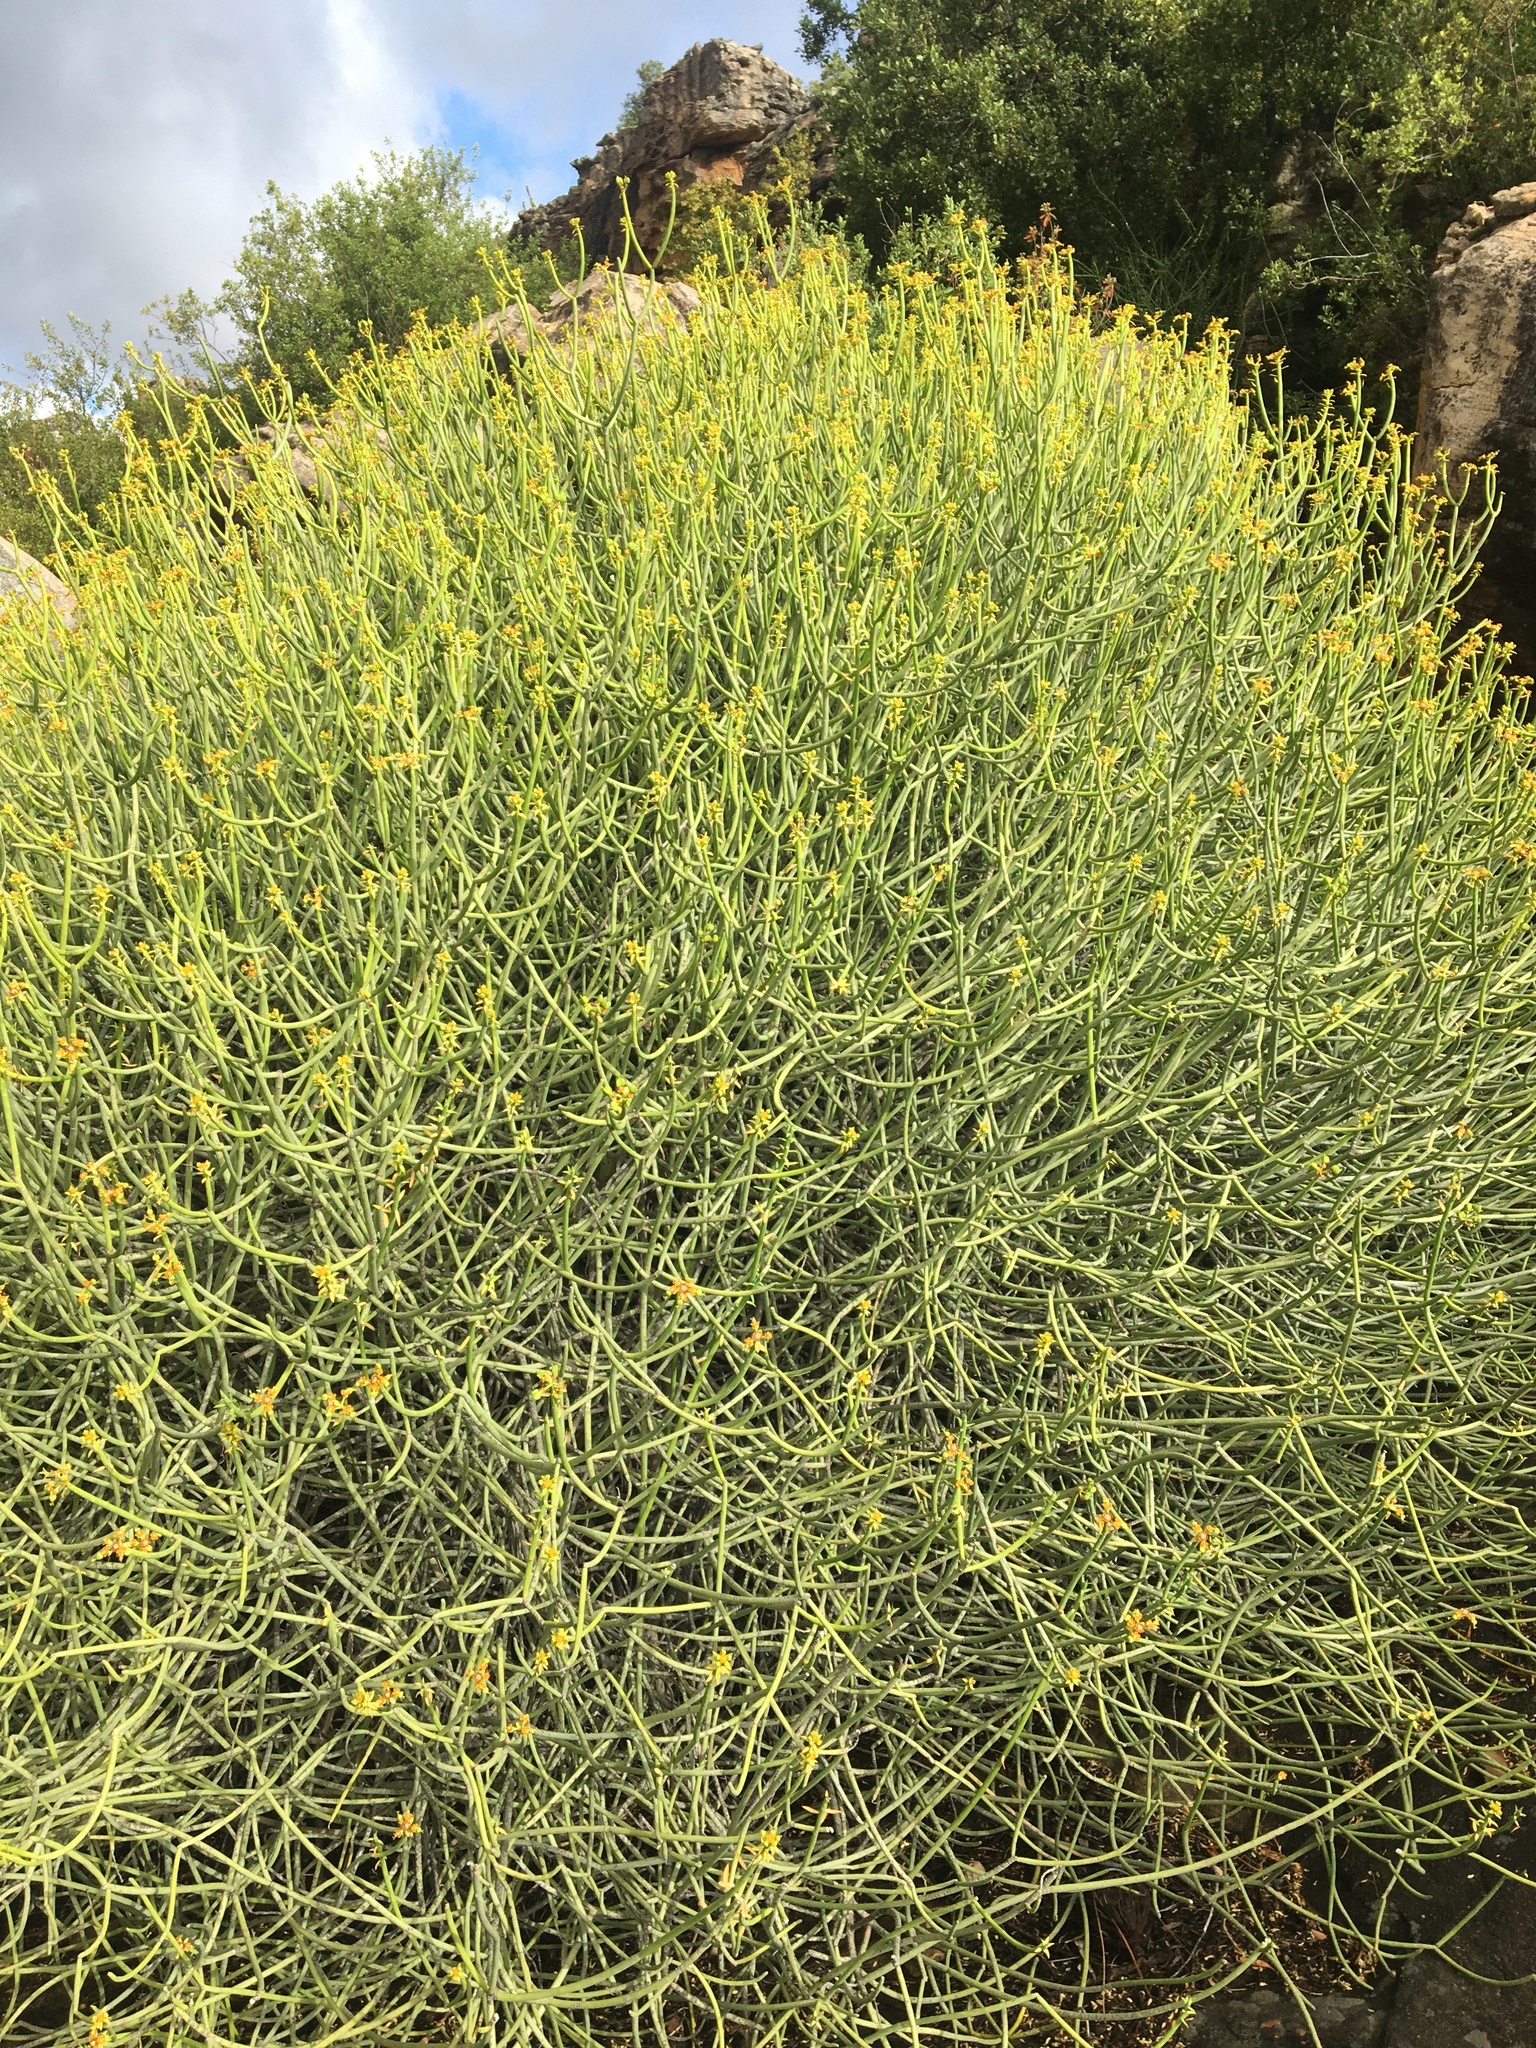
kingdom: Plantae
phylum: Tracheophyta
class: Magnoliopsida
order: Malpighiales
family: Euphorbiaceae
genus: Euphorbia
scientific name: Euphorbia mauritanica
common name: Jackal's-food
